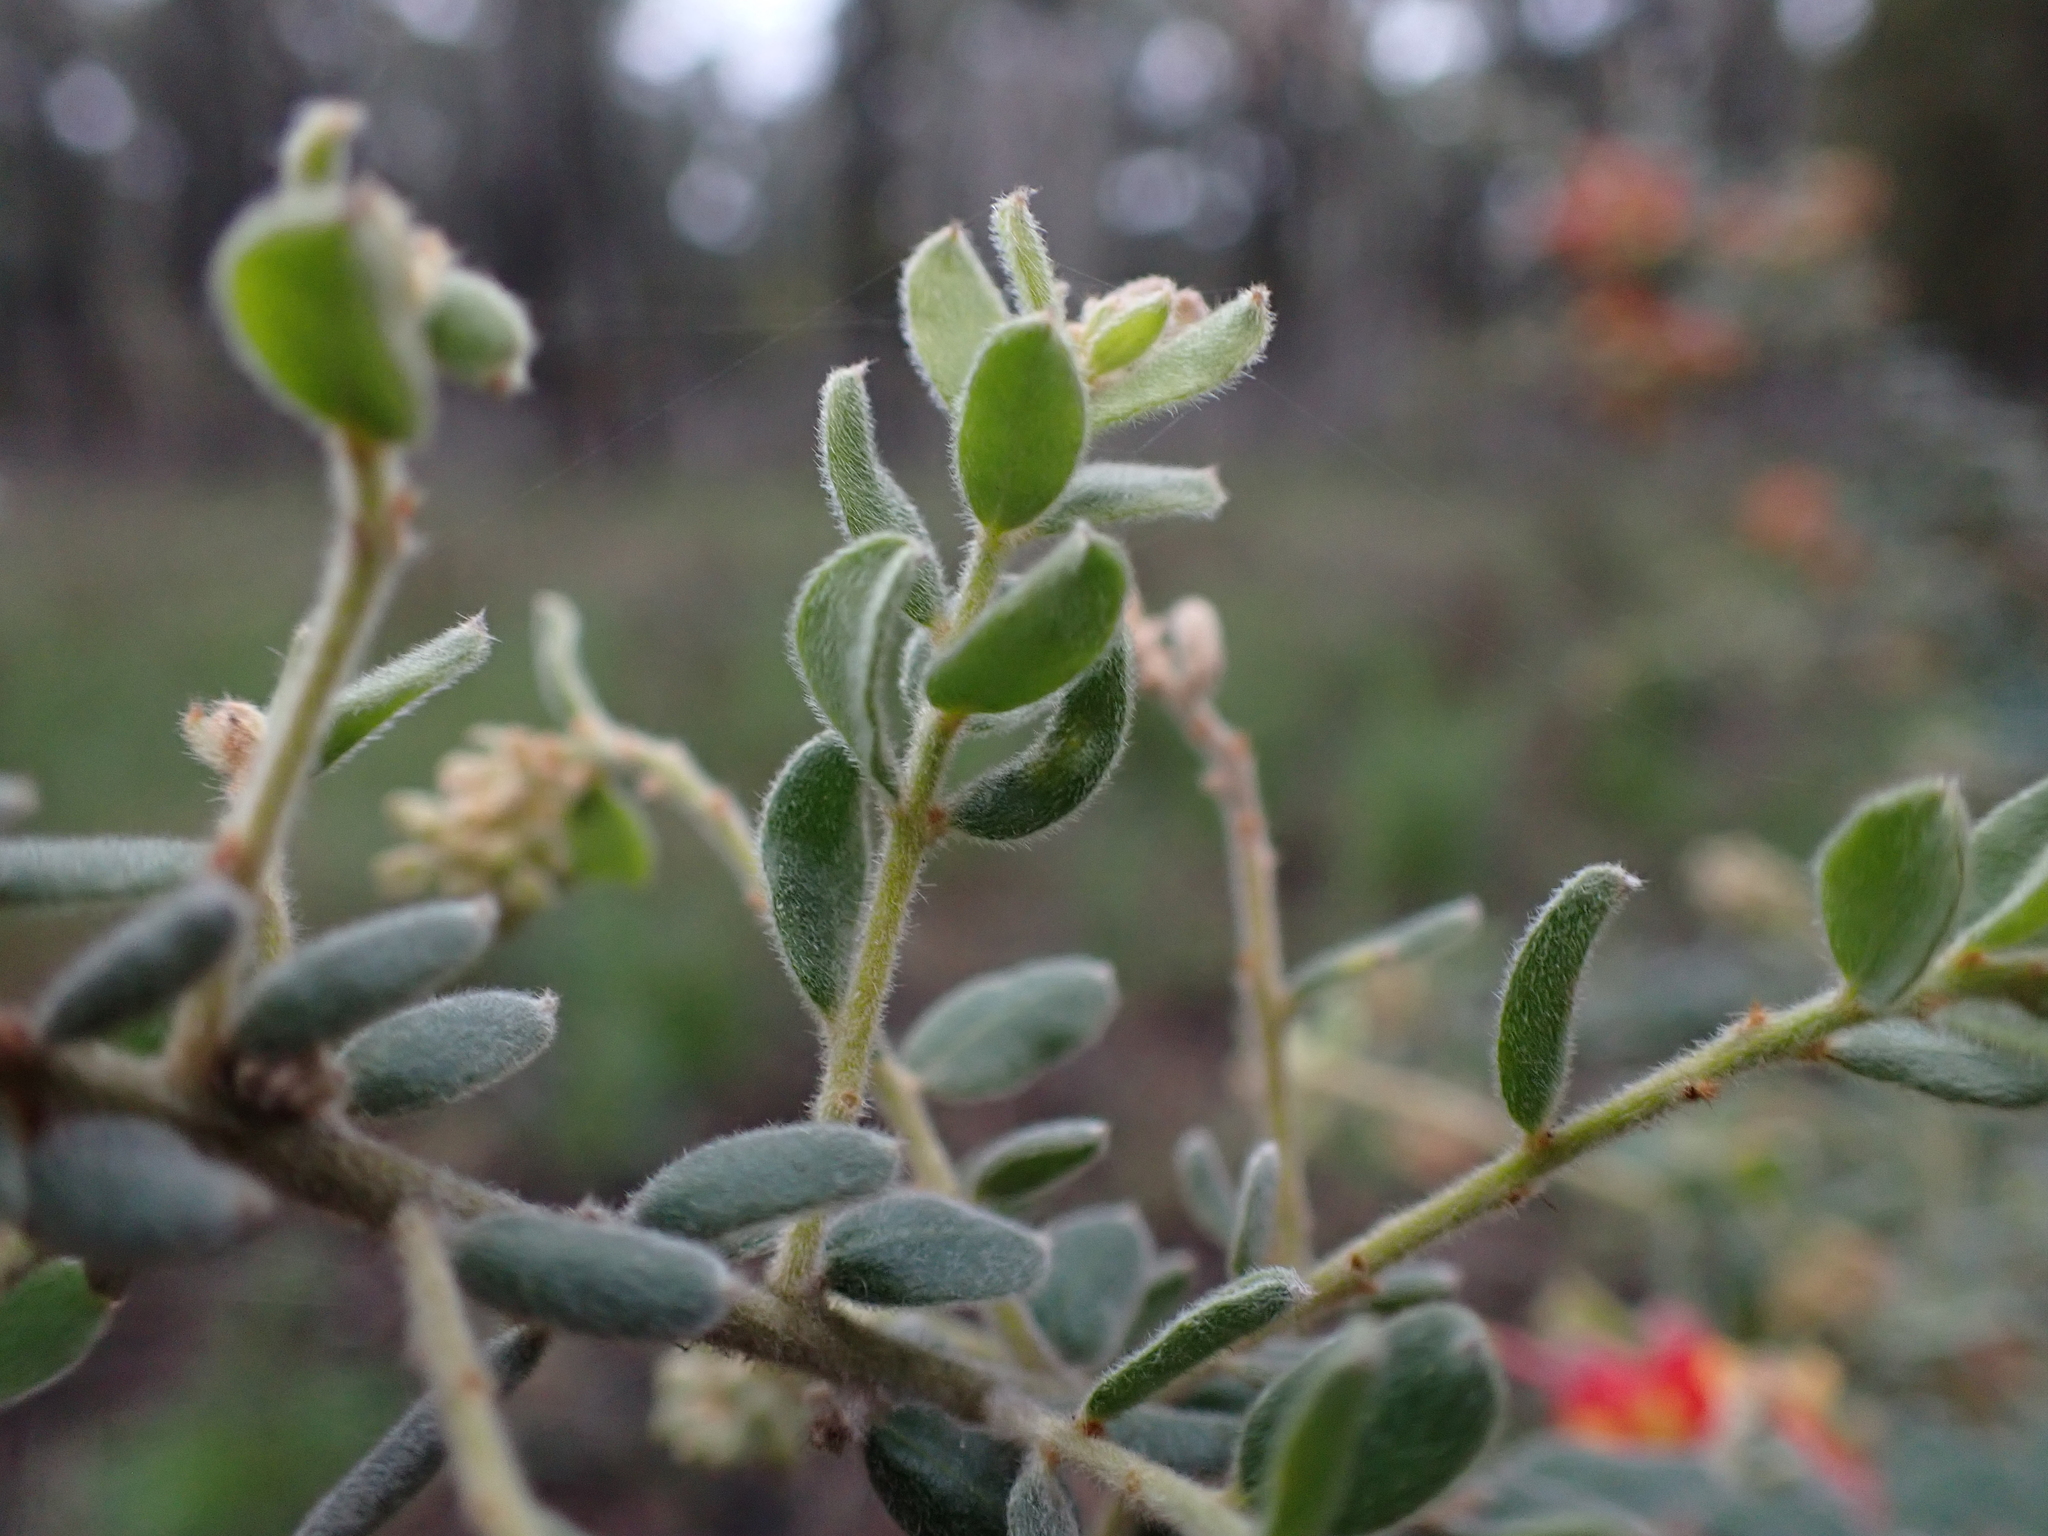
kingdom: Plantae
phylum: Tracheophyta
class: Magnoliopsida
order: Proteales
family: Proteaceae
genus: Grevillea
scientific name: Grevillea alpina
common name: Catclaws grevillea
